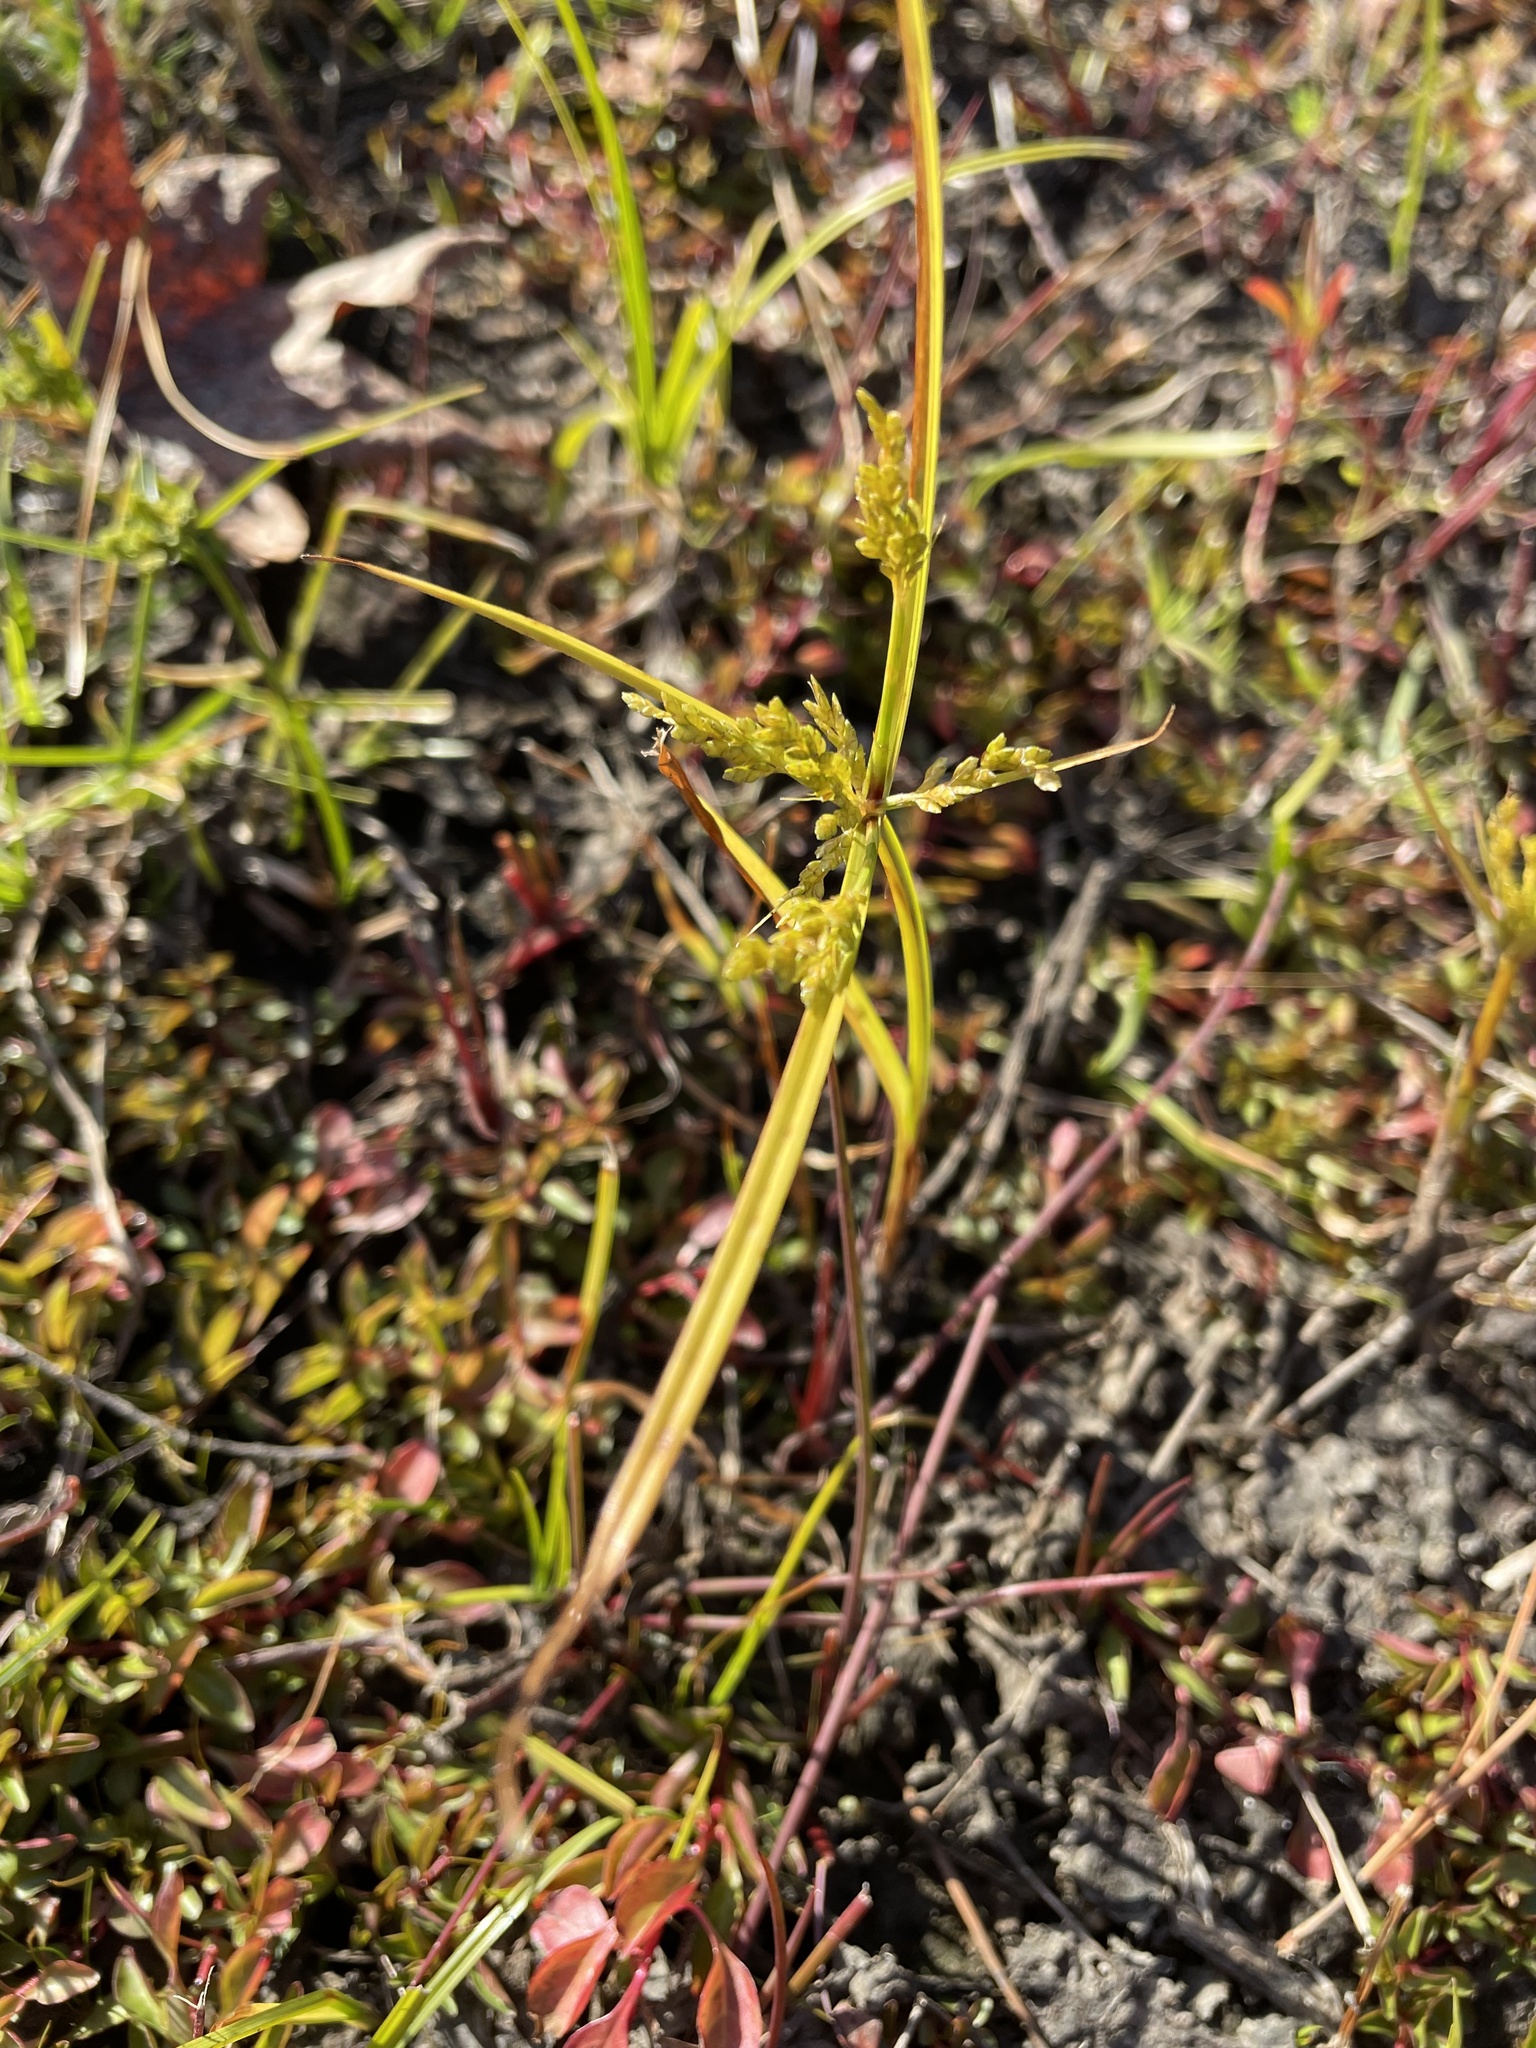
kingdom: Plantae
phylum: Tracheophyta
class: Liliopsida
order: Poales
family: Cyperaceae
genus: Cyperus
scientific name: Cyperus iria
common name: Ricefield flatsedge
